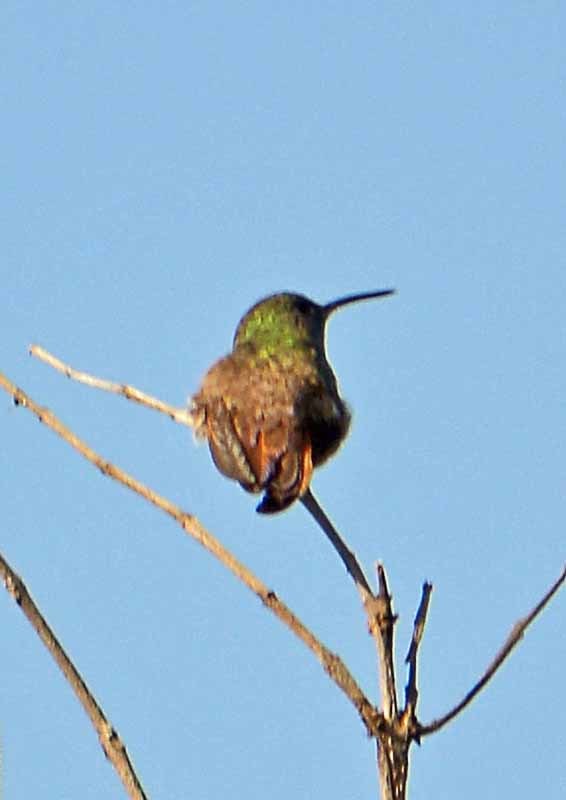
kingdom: Animalia
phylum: Chordata
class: Aves
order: Apodiformes
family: Trochilidae
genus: Saucerottia
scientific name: Saucerottia beryllina
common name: Berylline hummingbird
